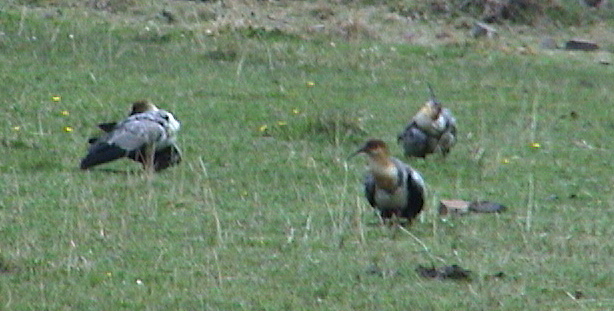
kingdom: Animalia
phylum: Chordata
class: Aves
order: Pelecaniformes
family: Threskiornithidae
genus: Theristicus
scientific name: Theristicus melanopis
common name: Black-faced ibis
